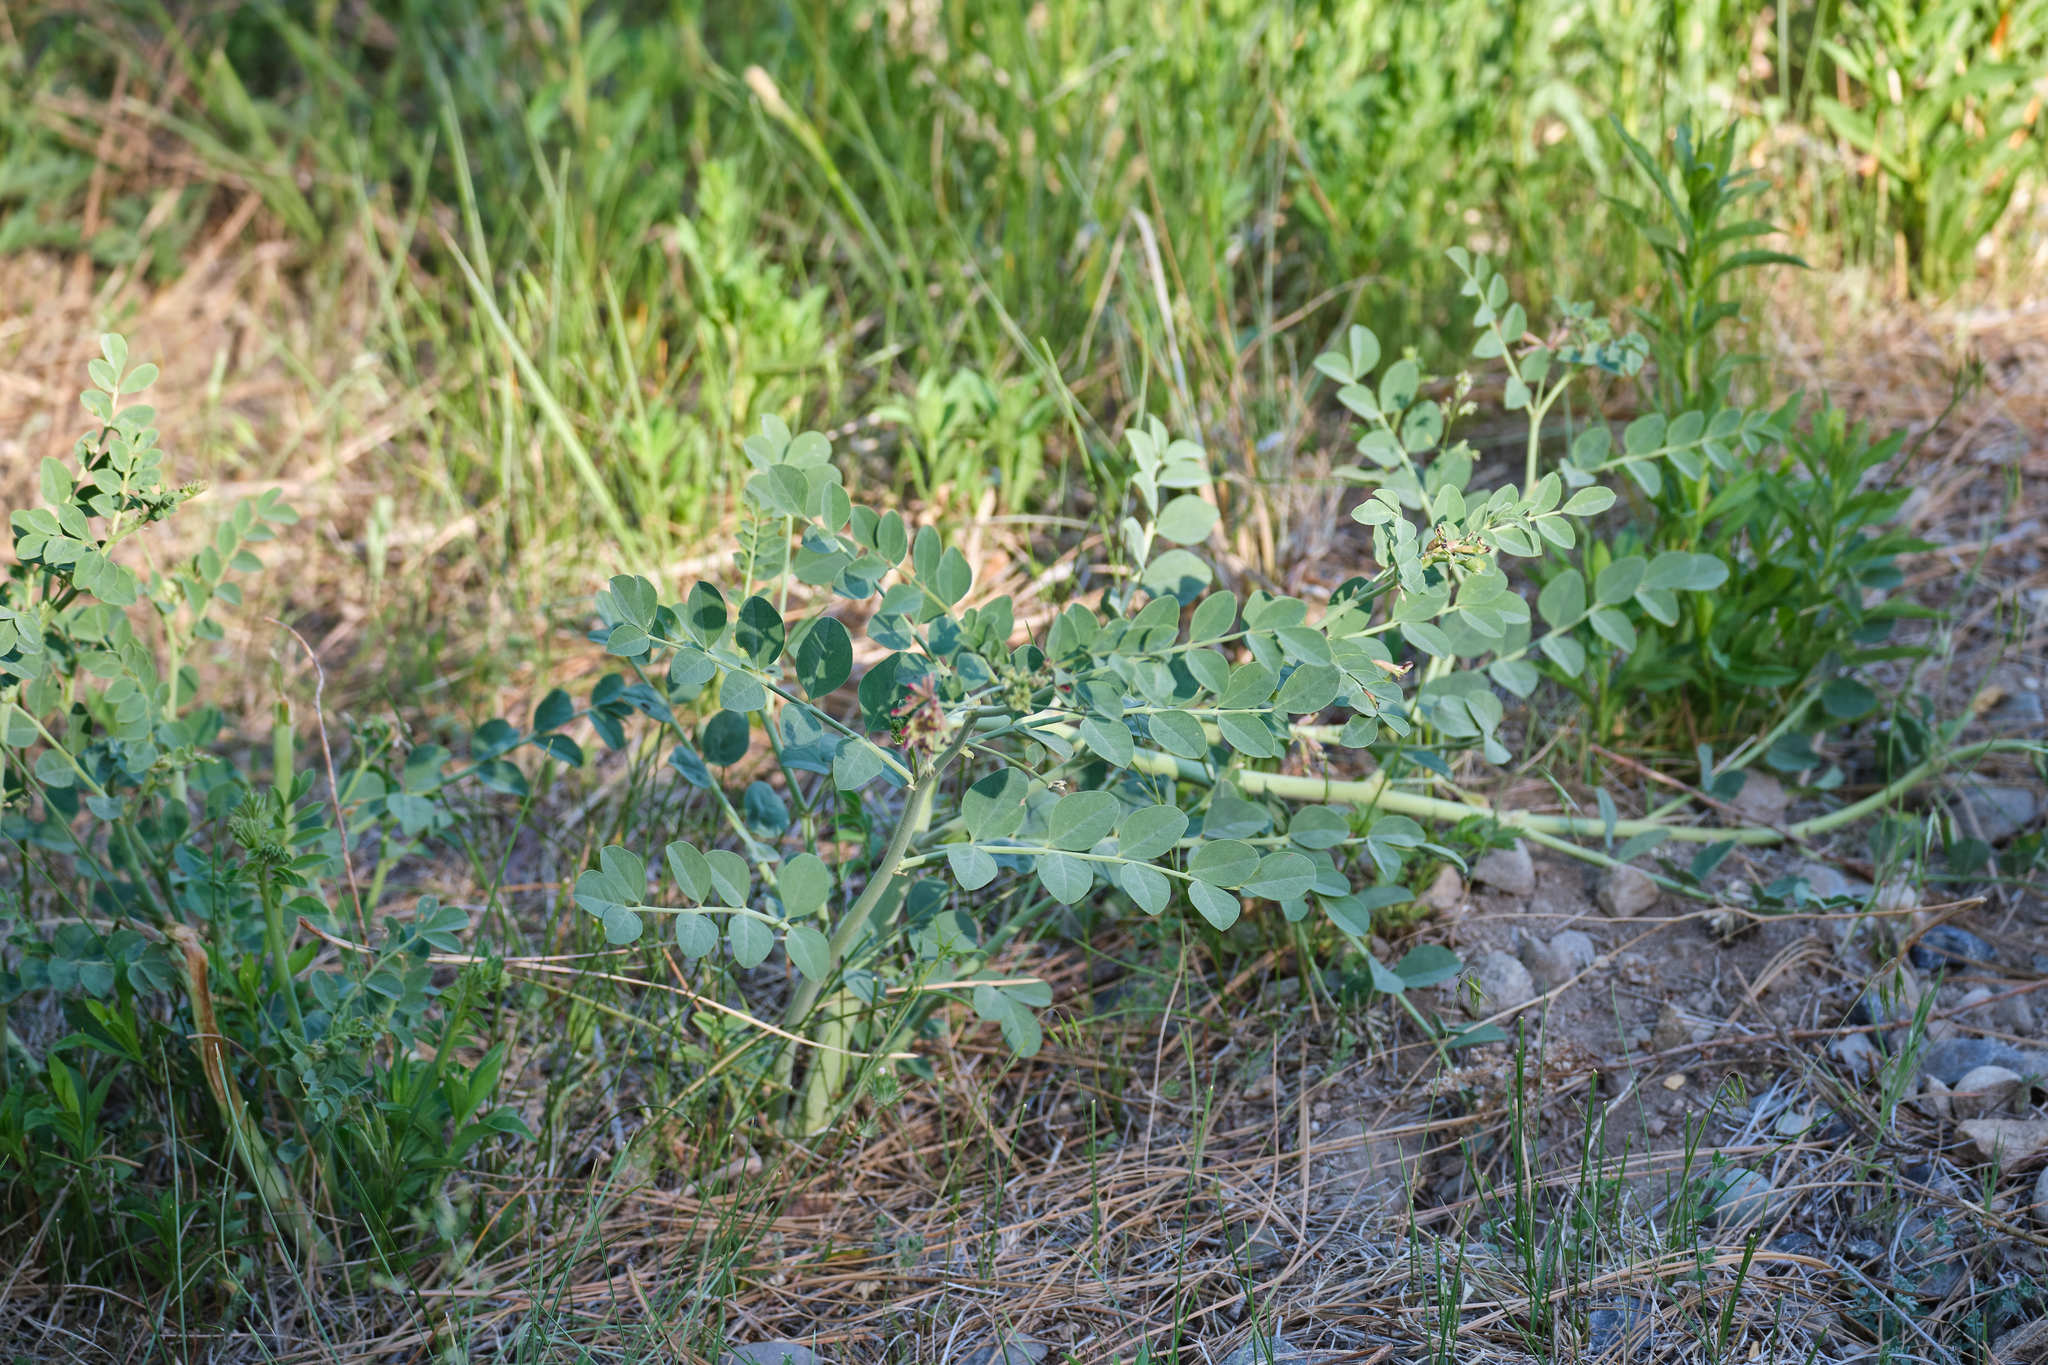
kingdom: Plantae
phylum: Tracheophyta
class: Magnoliopsida
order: Fabales
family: Fabaceae
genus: Hosackia
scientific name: Hosackia crassifolia
